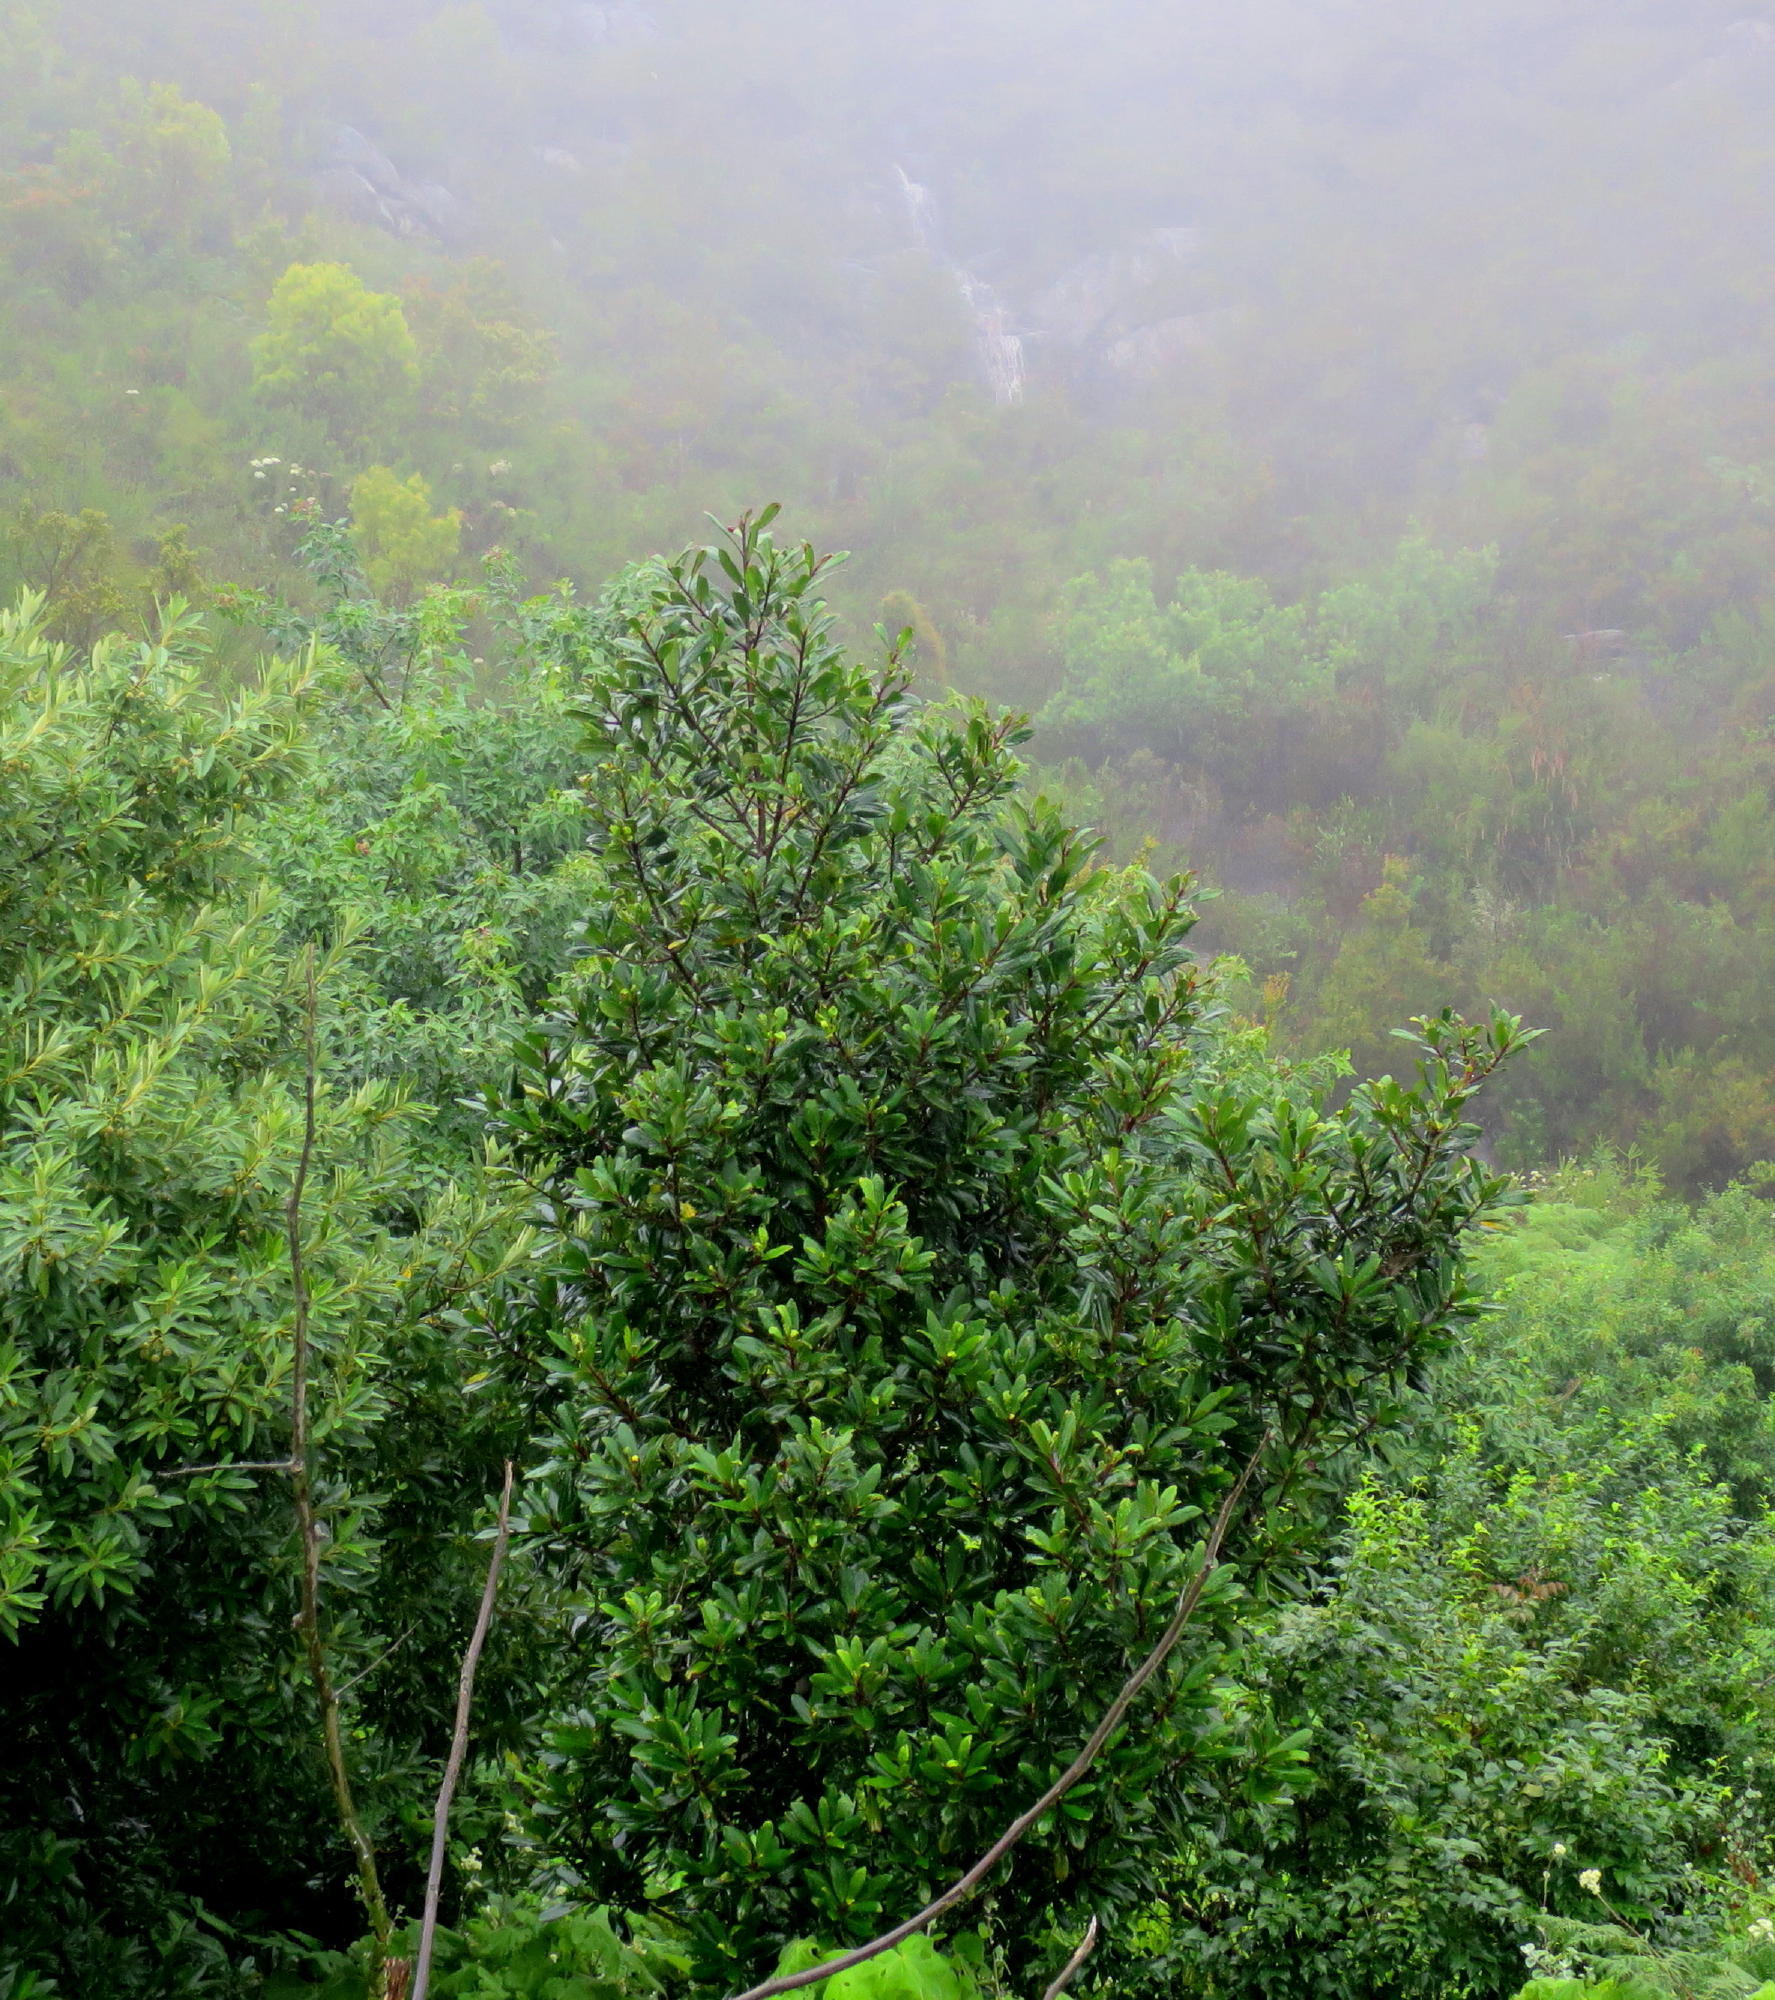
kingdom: Plantae
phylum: Tracheophyta
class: Magnoliopsida
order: Ericales
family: Primulaceae
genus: Myrsine
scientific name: Myrsine melanophloeos
